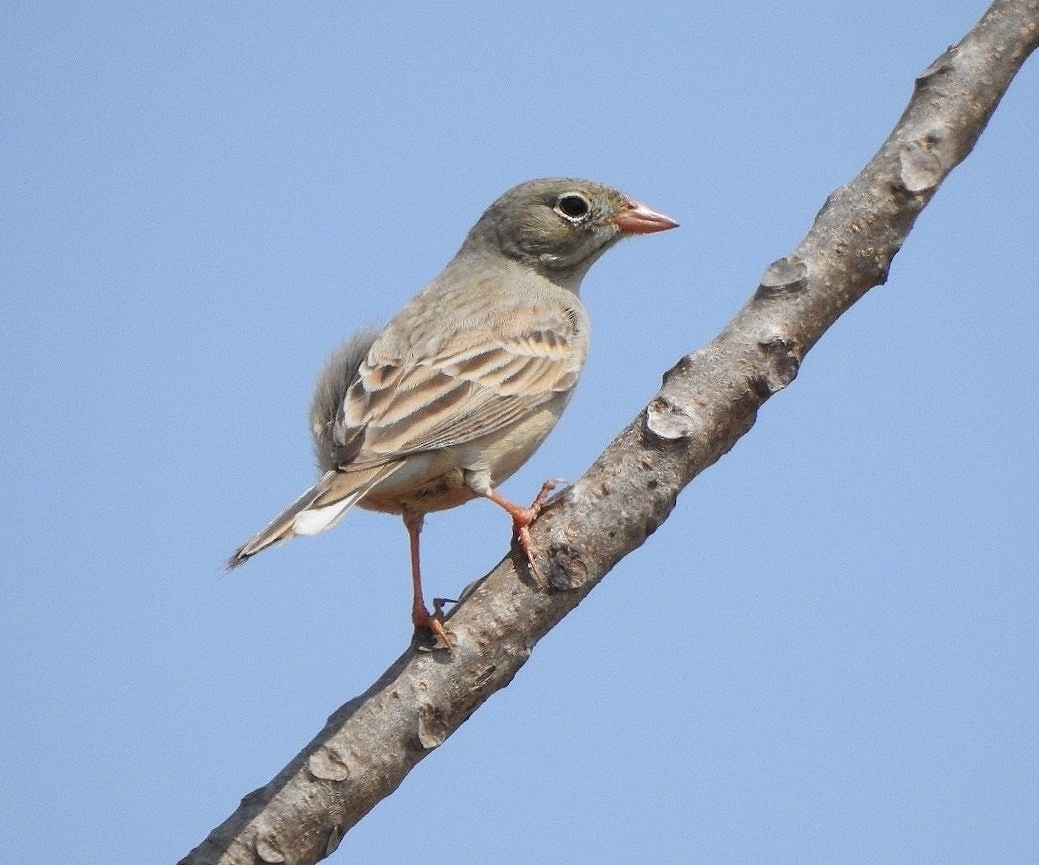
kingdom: Animalia
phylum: Chordata
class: Aves
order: Passeriformes
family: Emberizidae
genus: Emberiza
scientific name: Emberiza buchanani
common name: Grey-necked bunting
